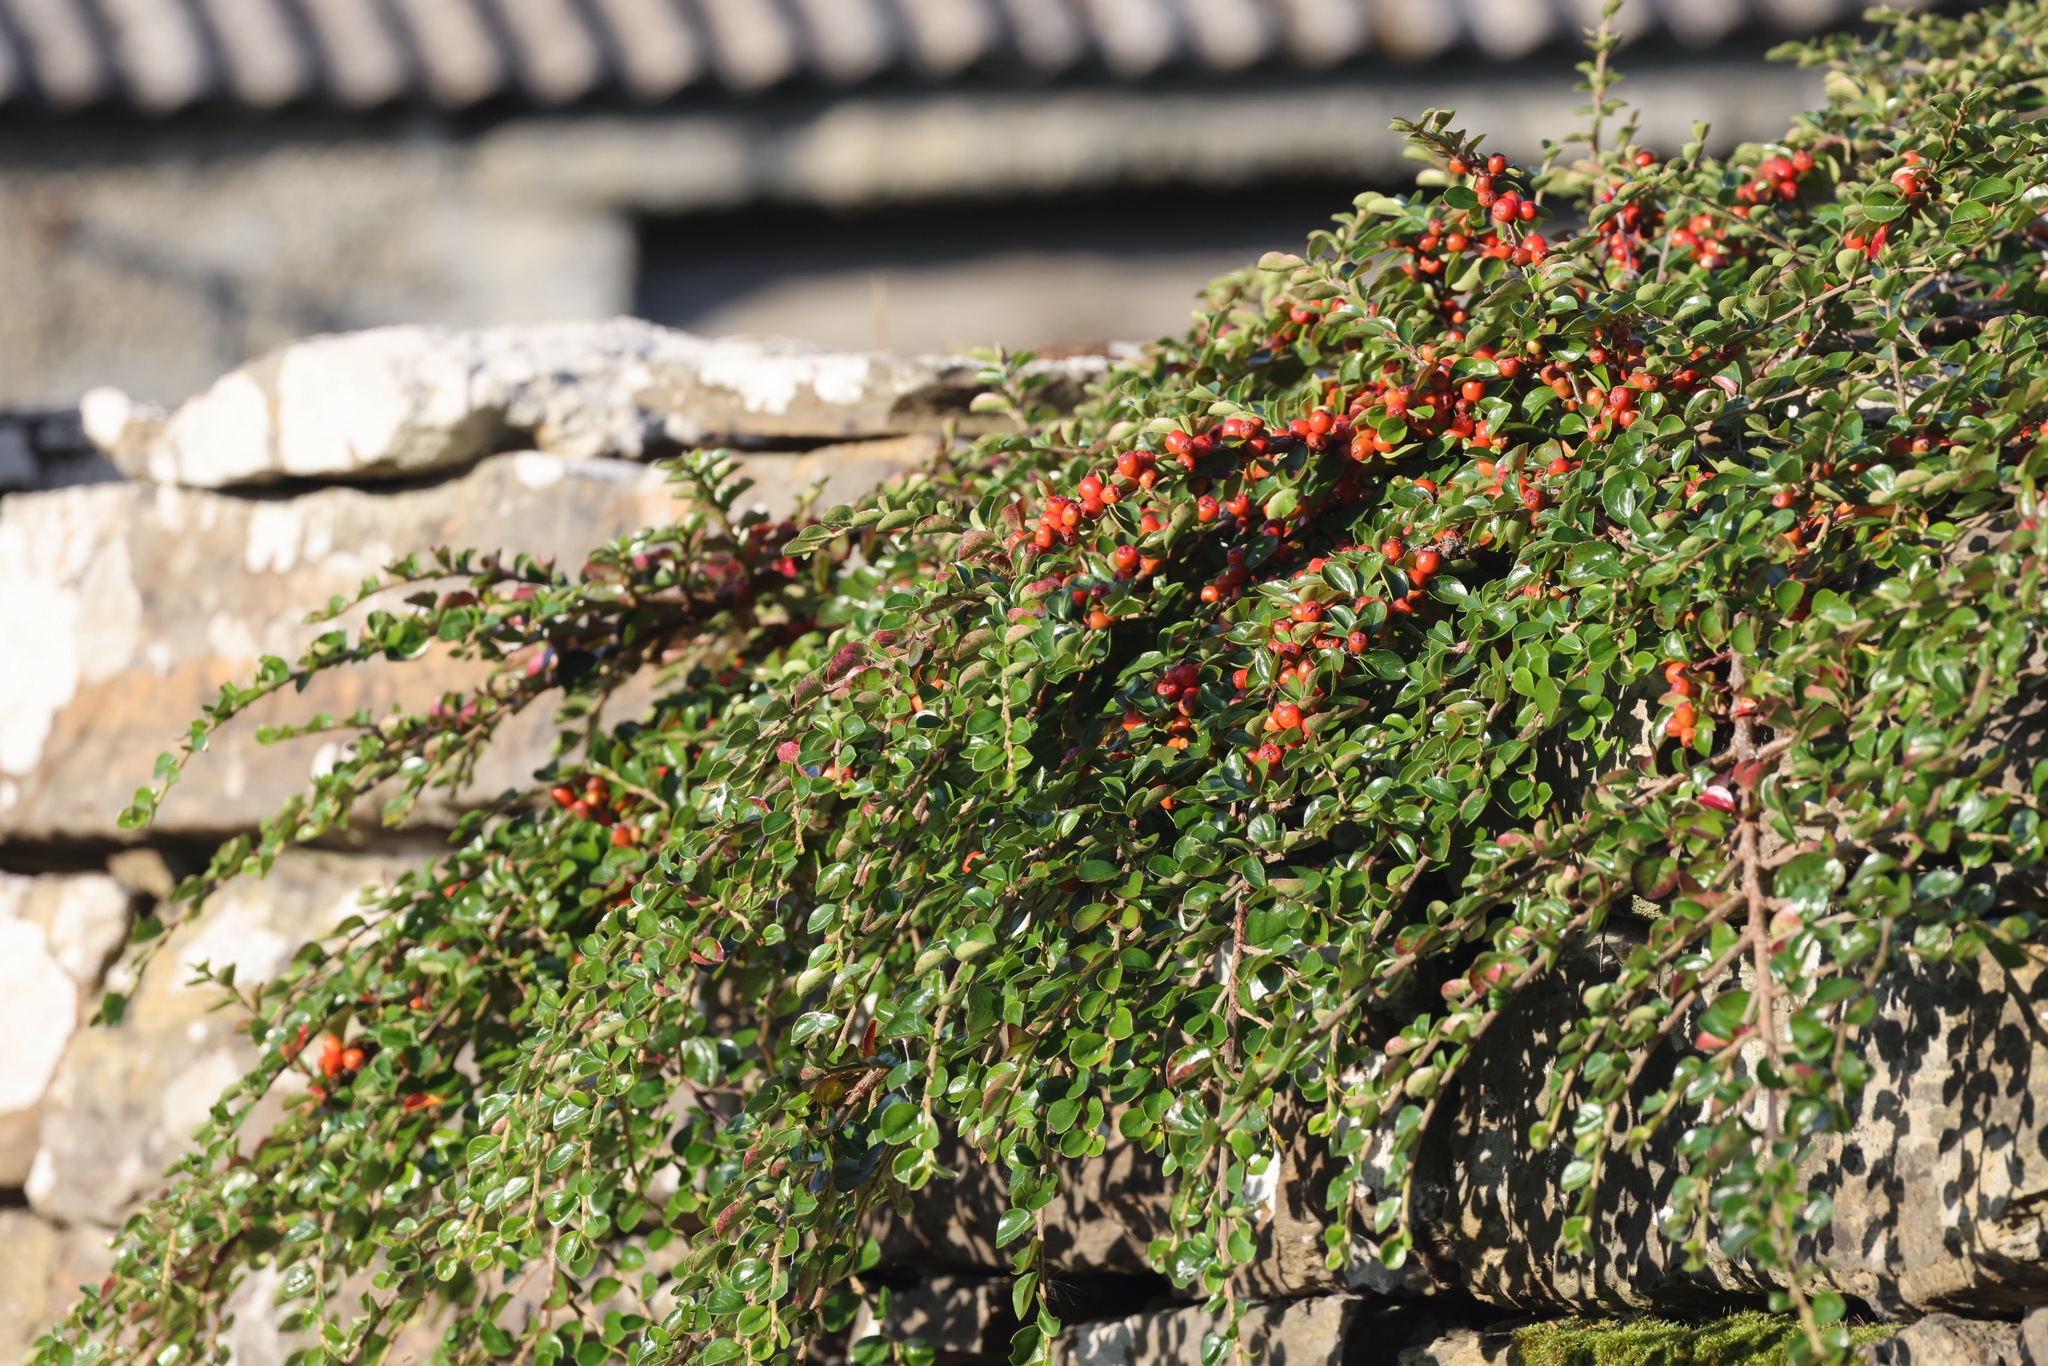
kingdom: Plantae
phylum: Tracheophyta
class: Magnoliopsida
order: Rosales
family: Rosaceae
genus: Cotoneaster
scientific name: Cotoneaster horizontalis
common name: Wall cotoneaster
